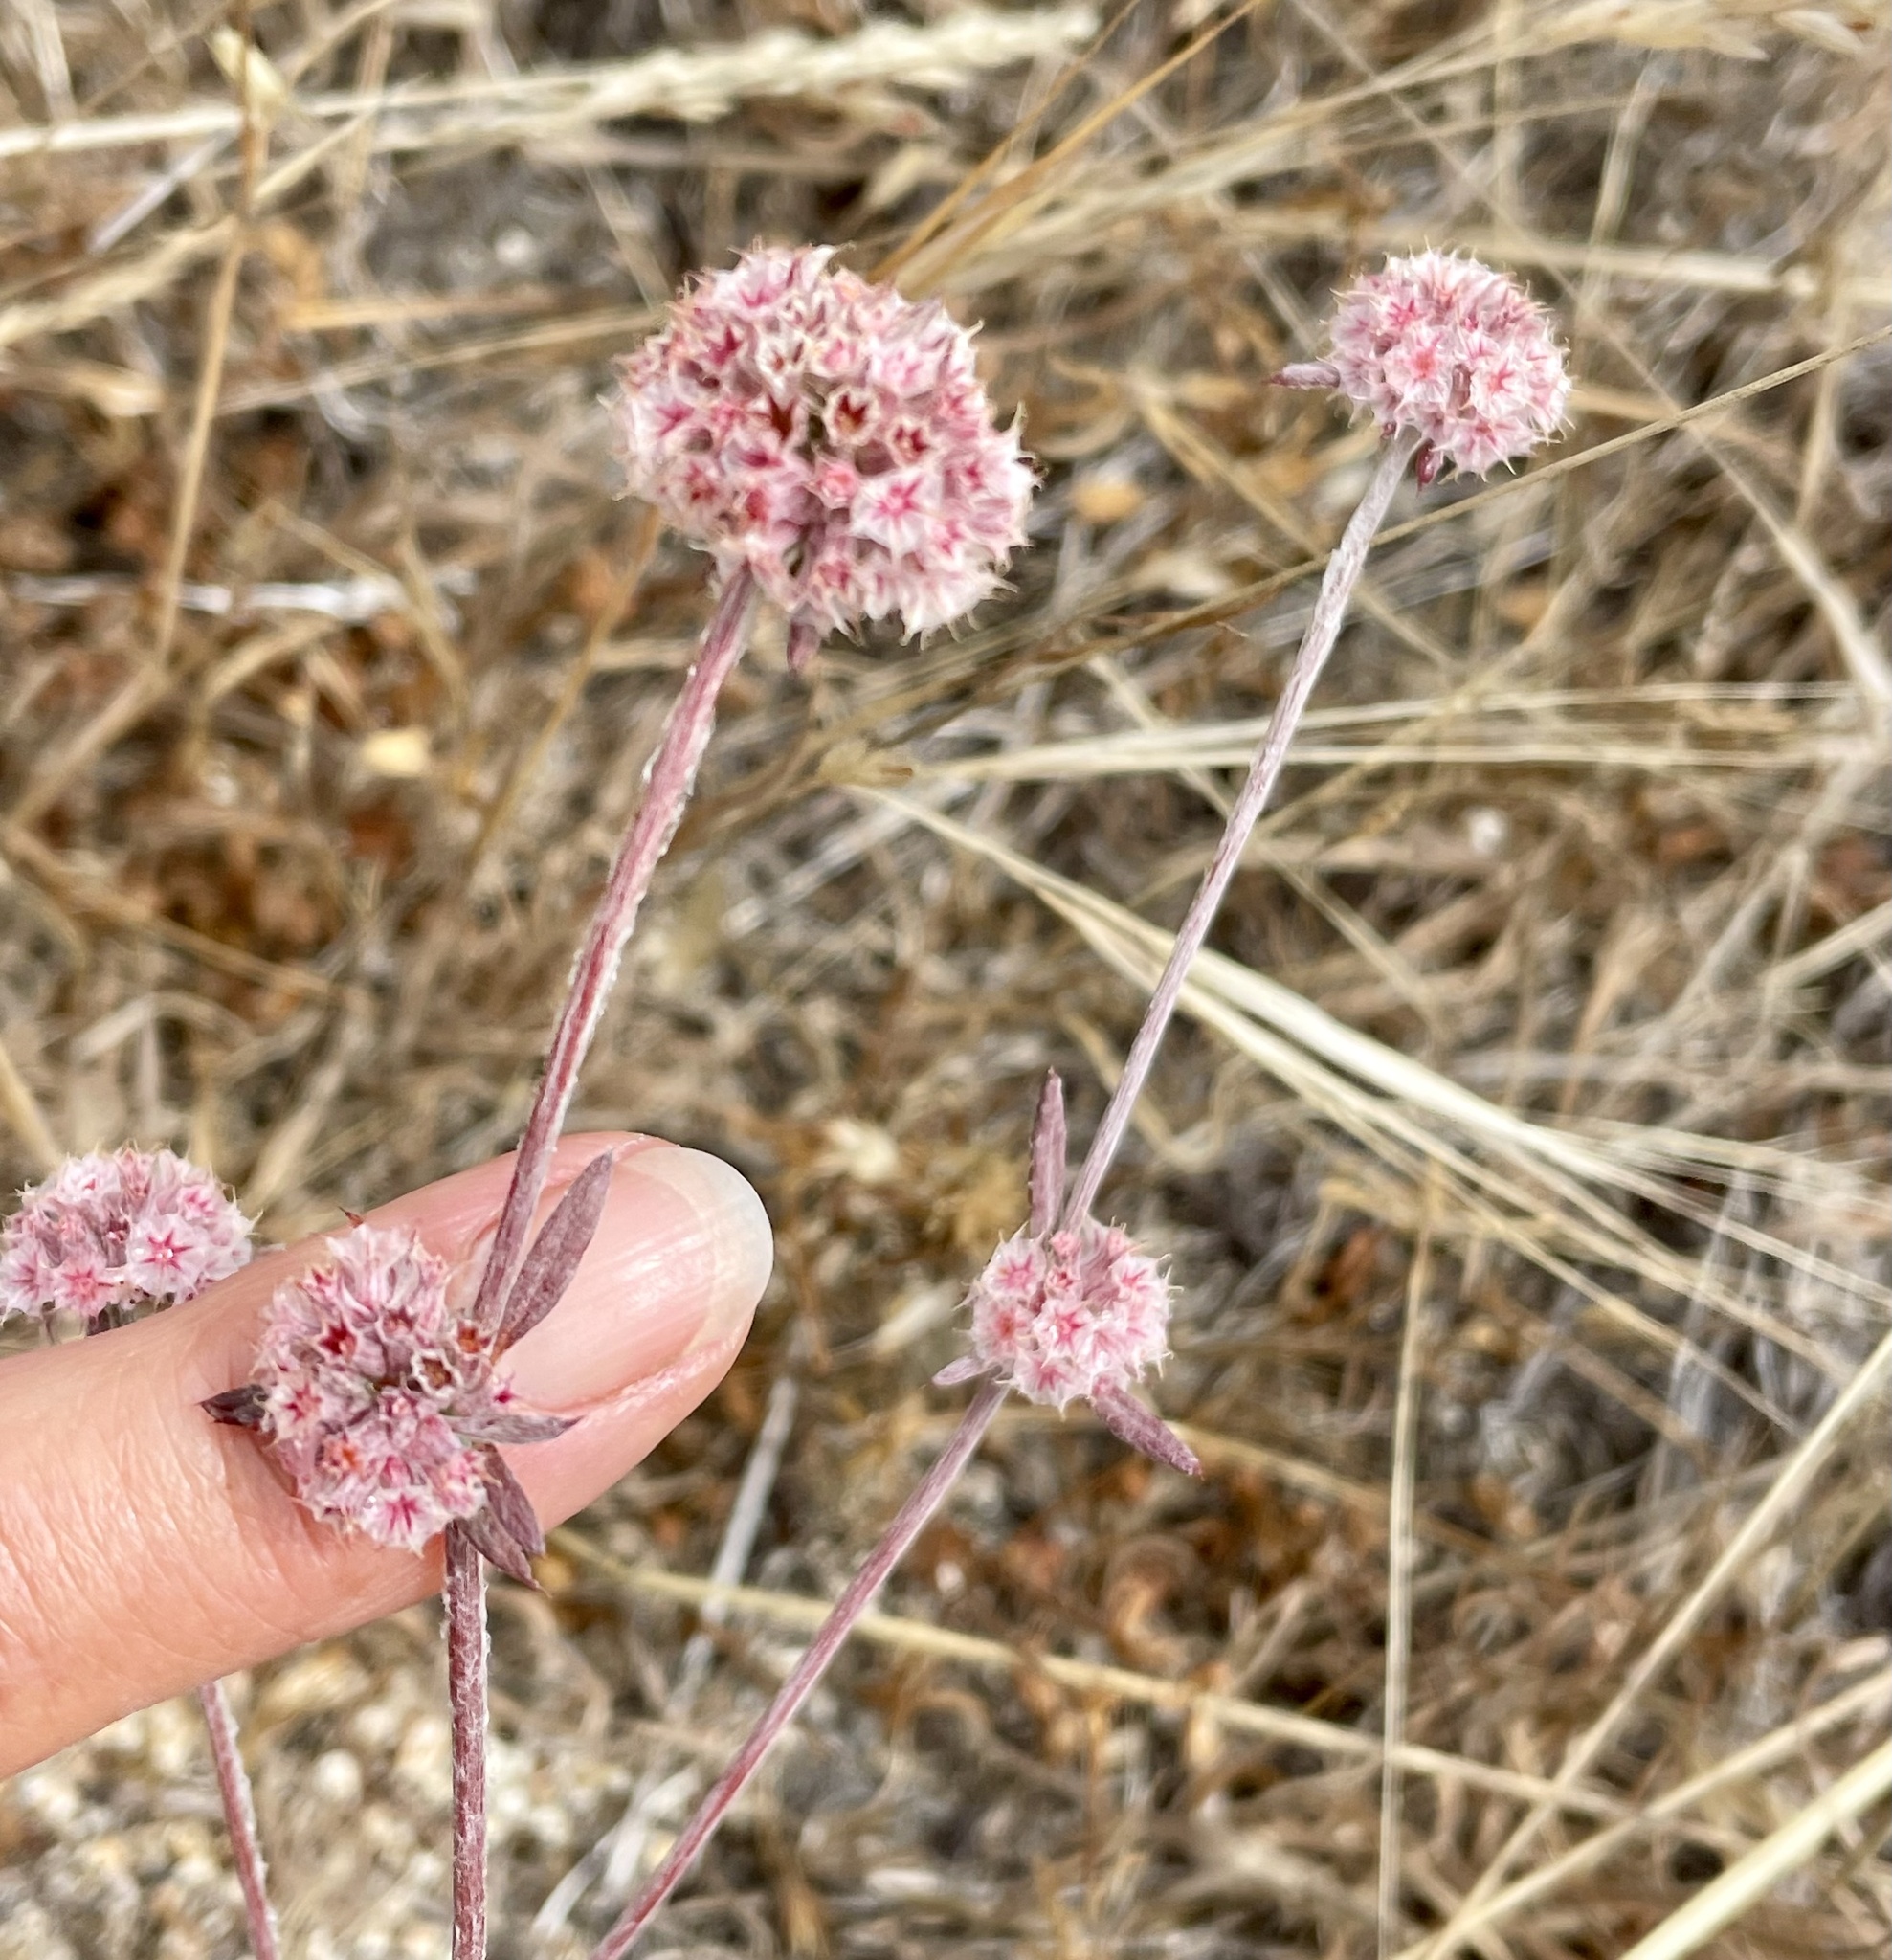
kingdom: Plantae
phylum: Tracheophyta
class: Magnoliopsida
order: Caryophyllales
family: Polygonaceae
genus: Chorizanthe
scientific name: Chorizanthe membranacea
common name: Pink spineflower
